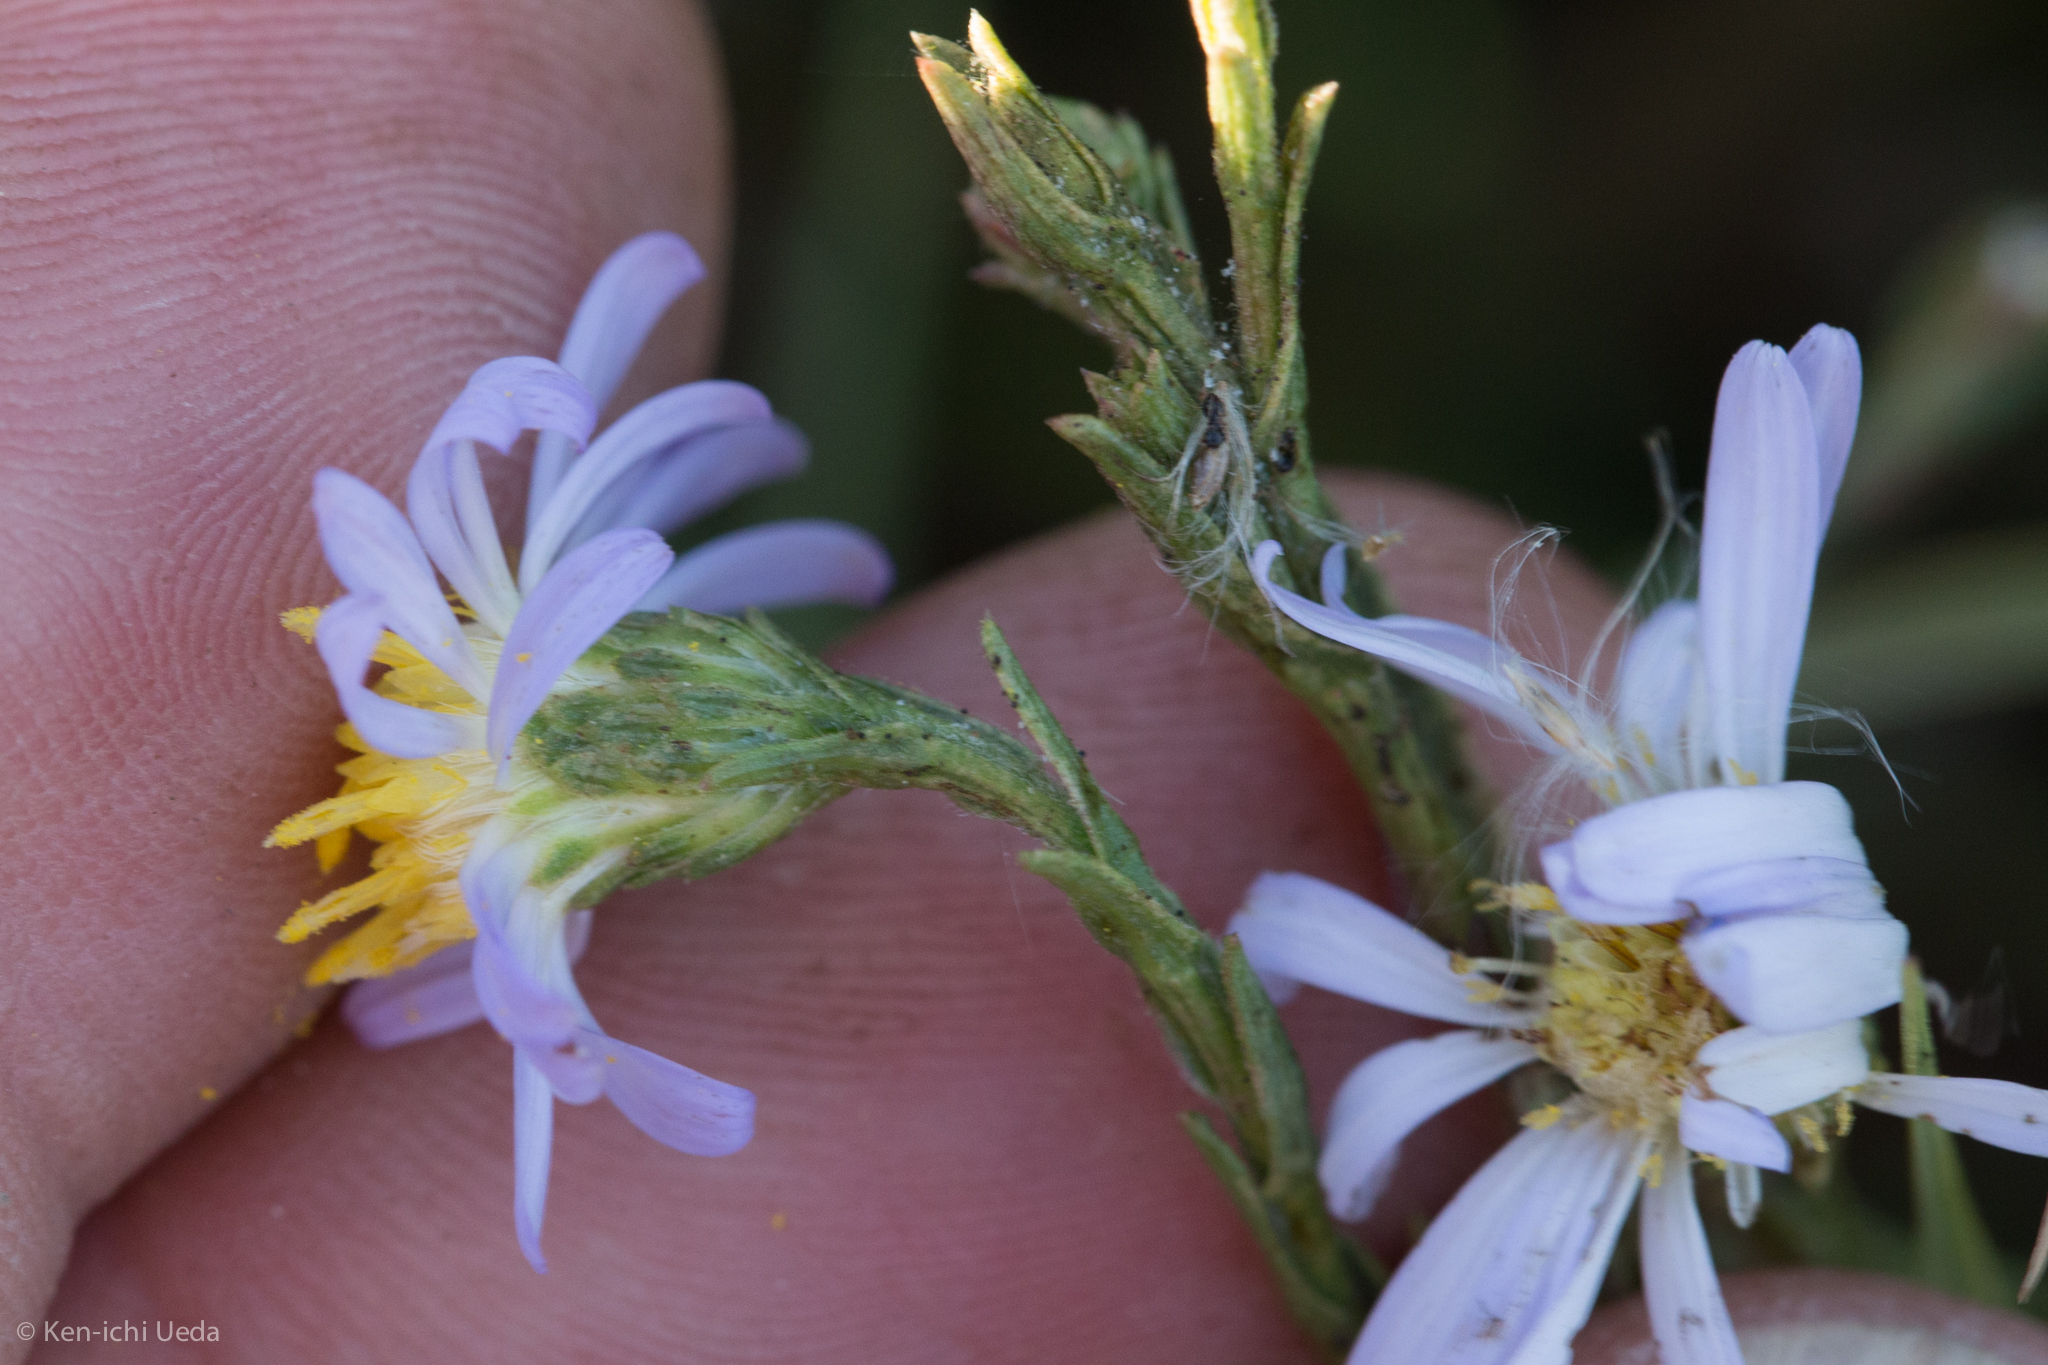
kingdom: Plantae
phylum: Tracheophyta
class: Magnoliopsida
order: Asterales
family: Asteraceae
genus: Symphyotrichum
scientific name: Symphyotrichum lentum
